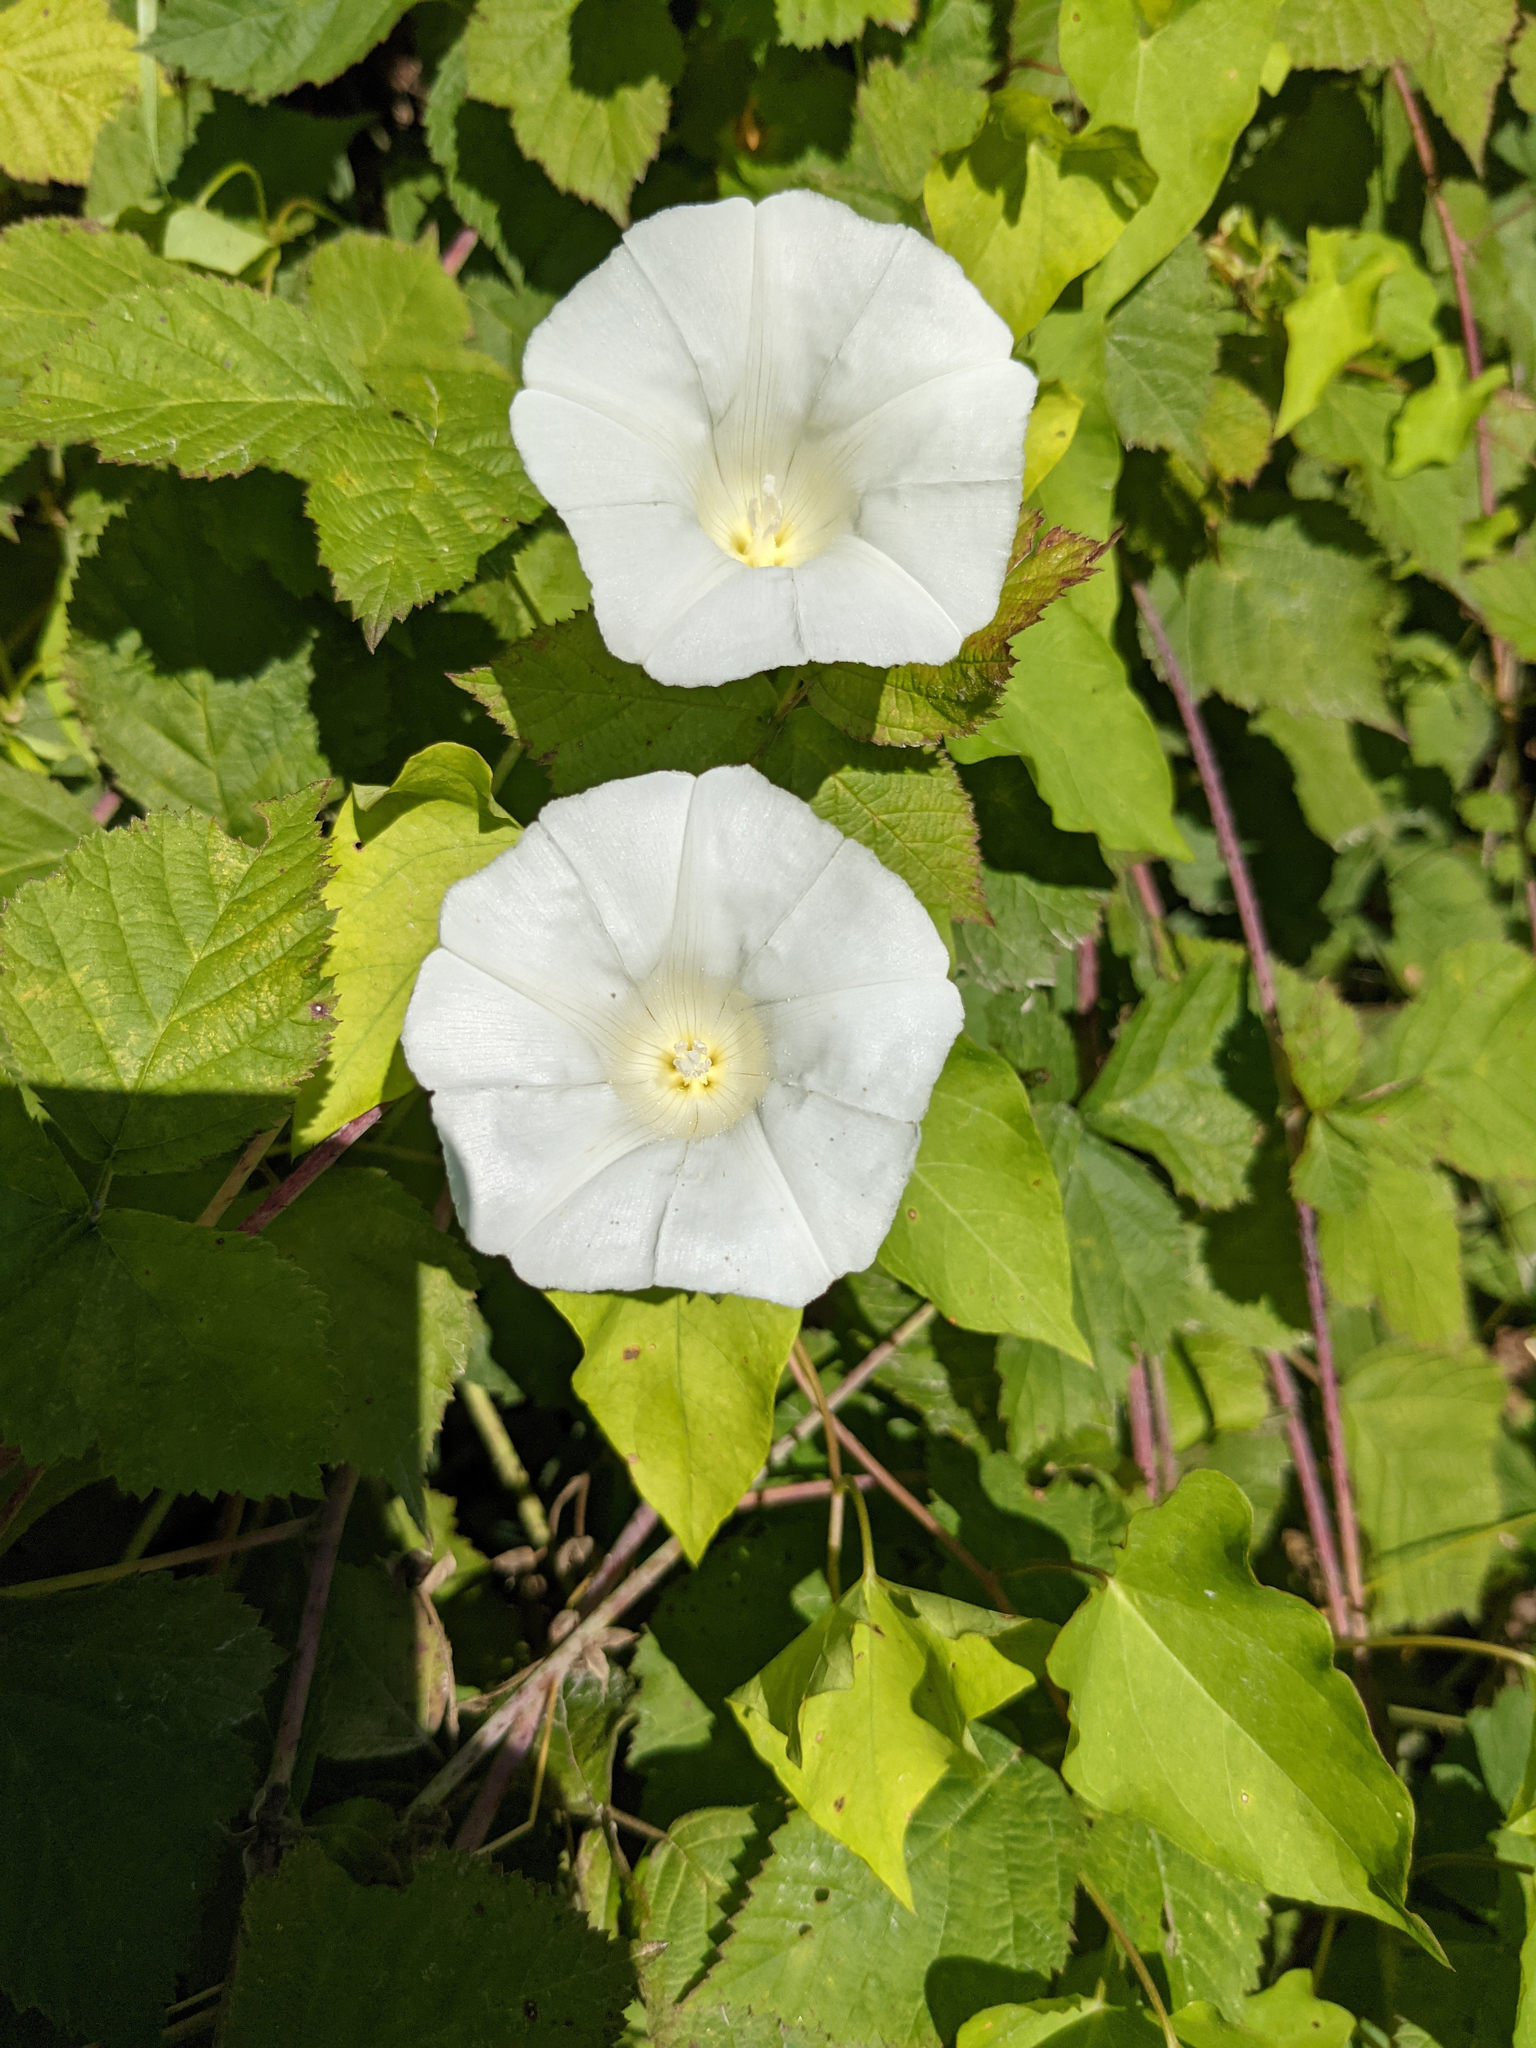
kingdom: Plantae
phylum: Tracheophyta
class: Magnoliopsida
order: Solanales
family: Convolvulaceae
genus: Calystegia
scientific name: Calystegia sepium
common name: Hedge bindweed
